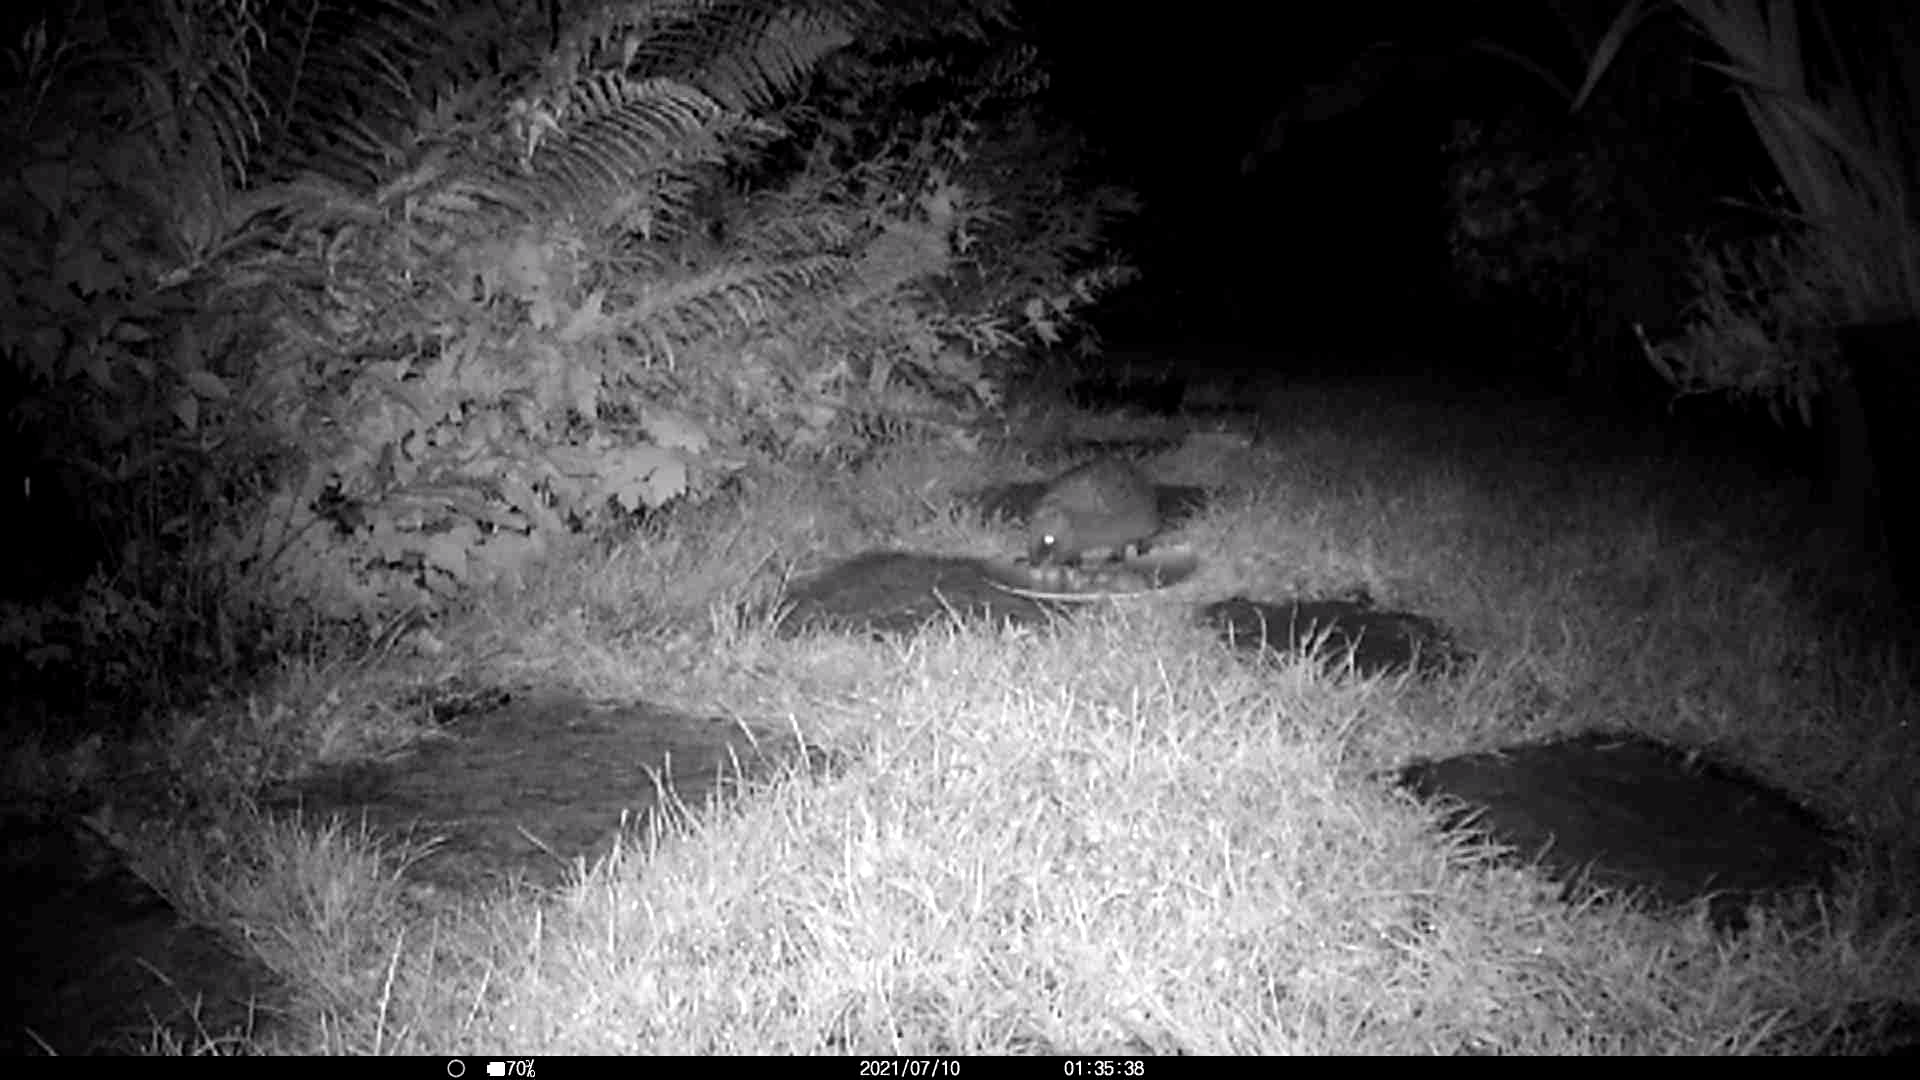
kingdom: Animalia
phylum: Chordata
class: Mammalia
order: Erinaceomorpha
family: Erinaceidae
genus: Erinaceus
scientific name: Erinaceus europaeus
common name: West european hedgehog
